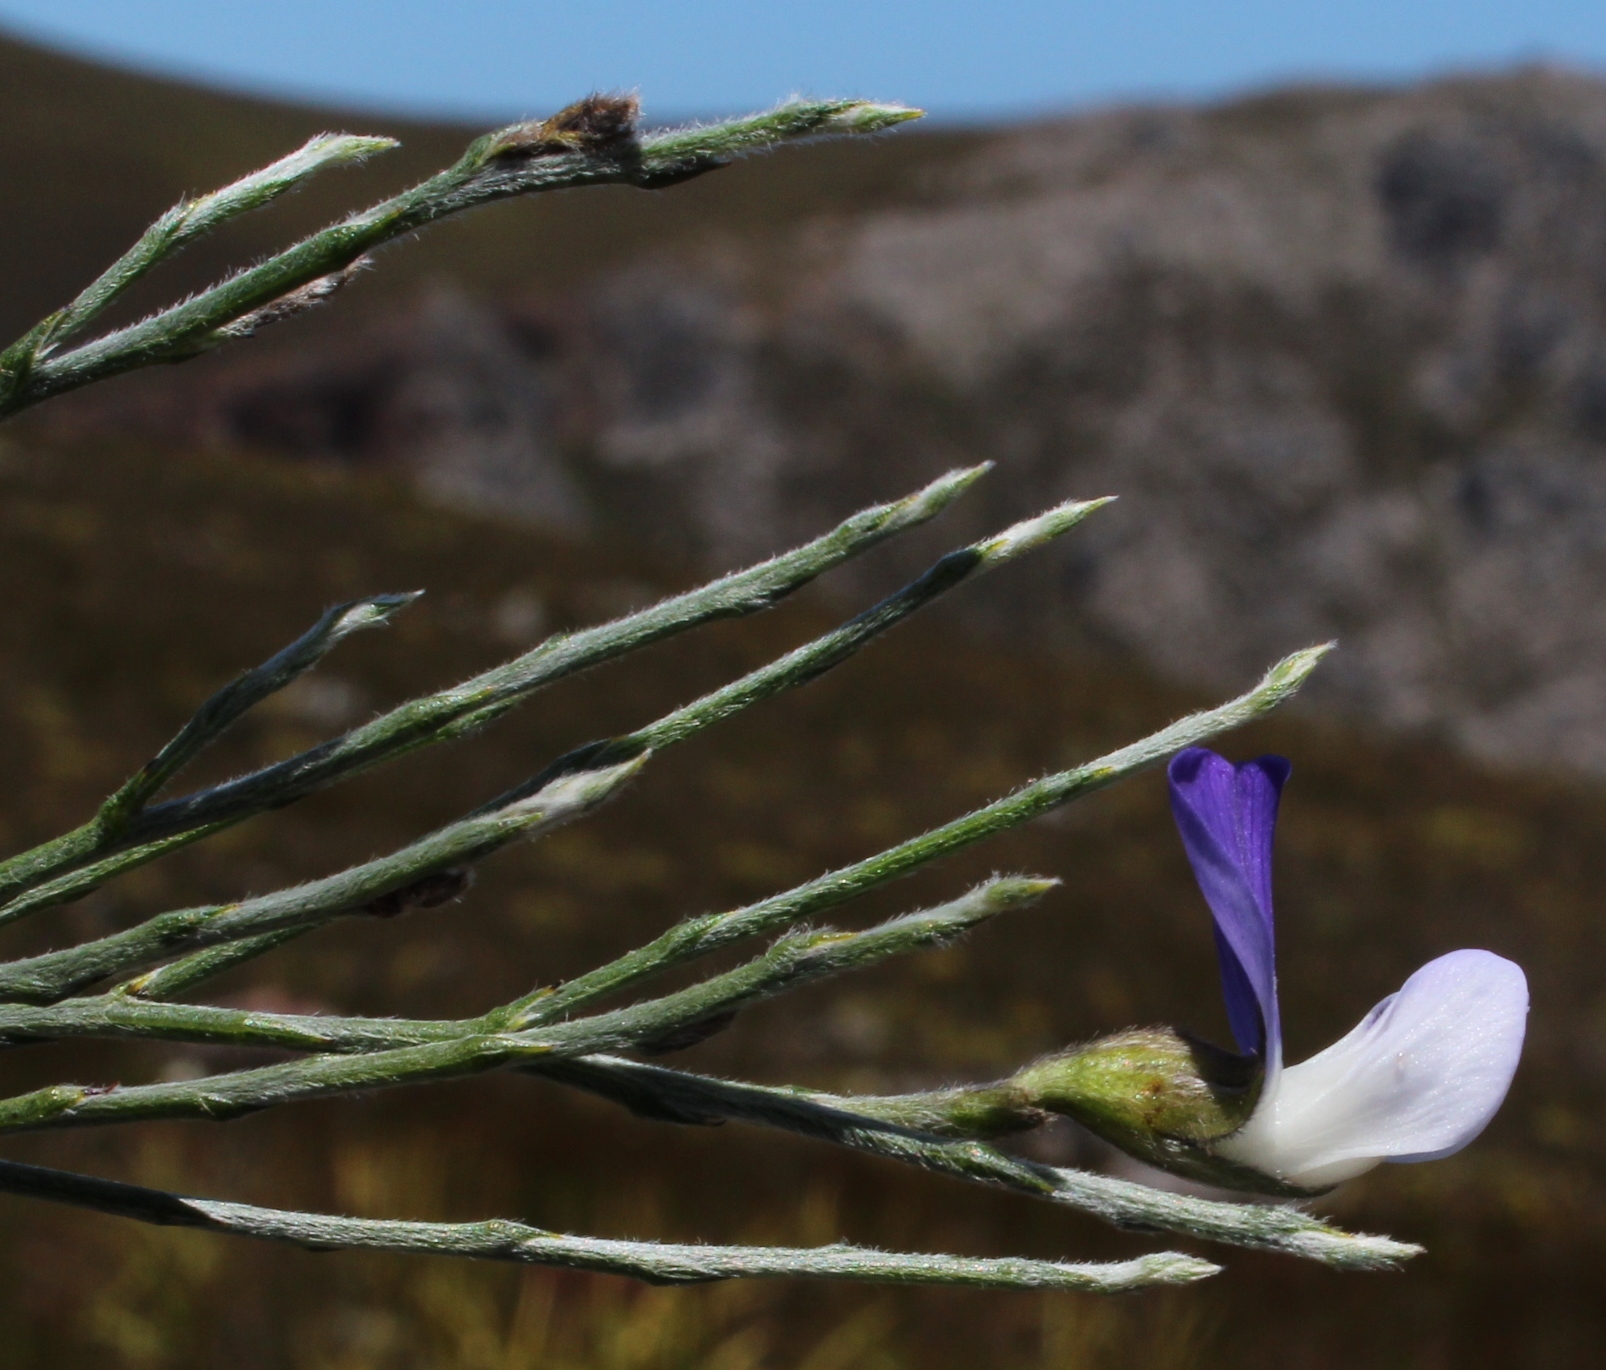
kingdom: Plantae
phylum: Tracheophyta
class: Magnoliopsida
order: Fabales
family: Fabaceae
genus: Psoralea
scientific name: Psoralea pullata
